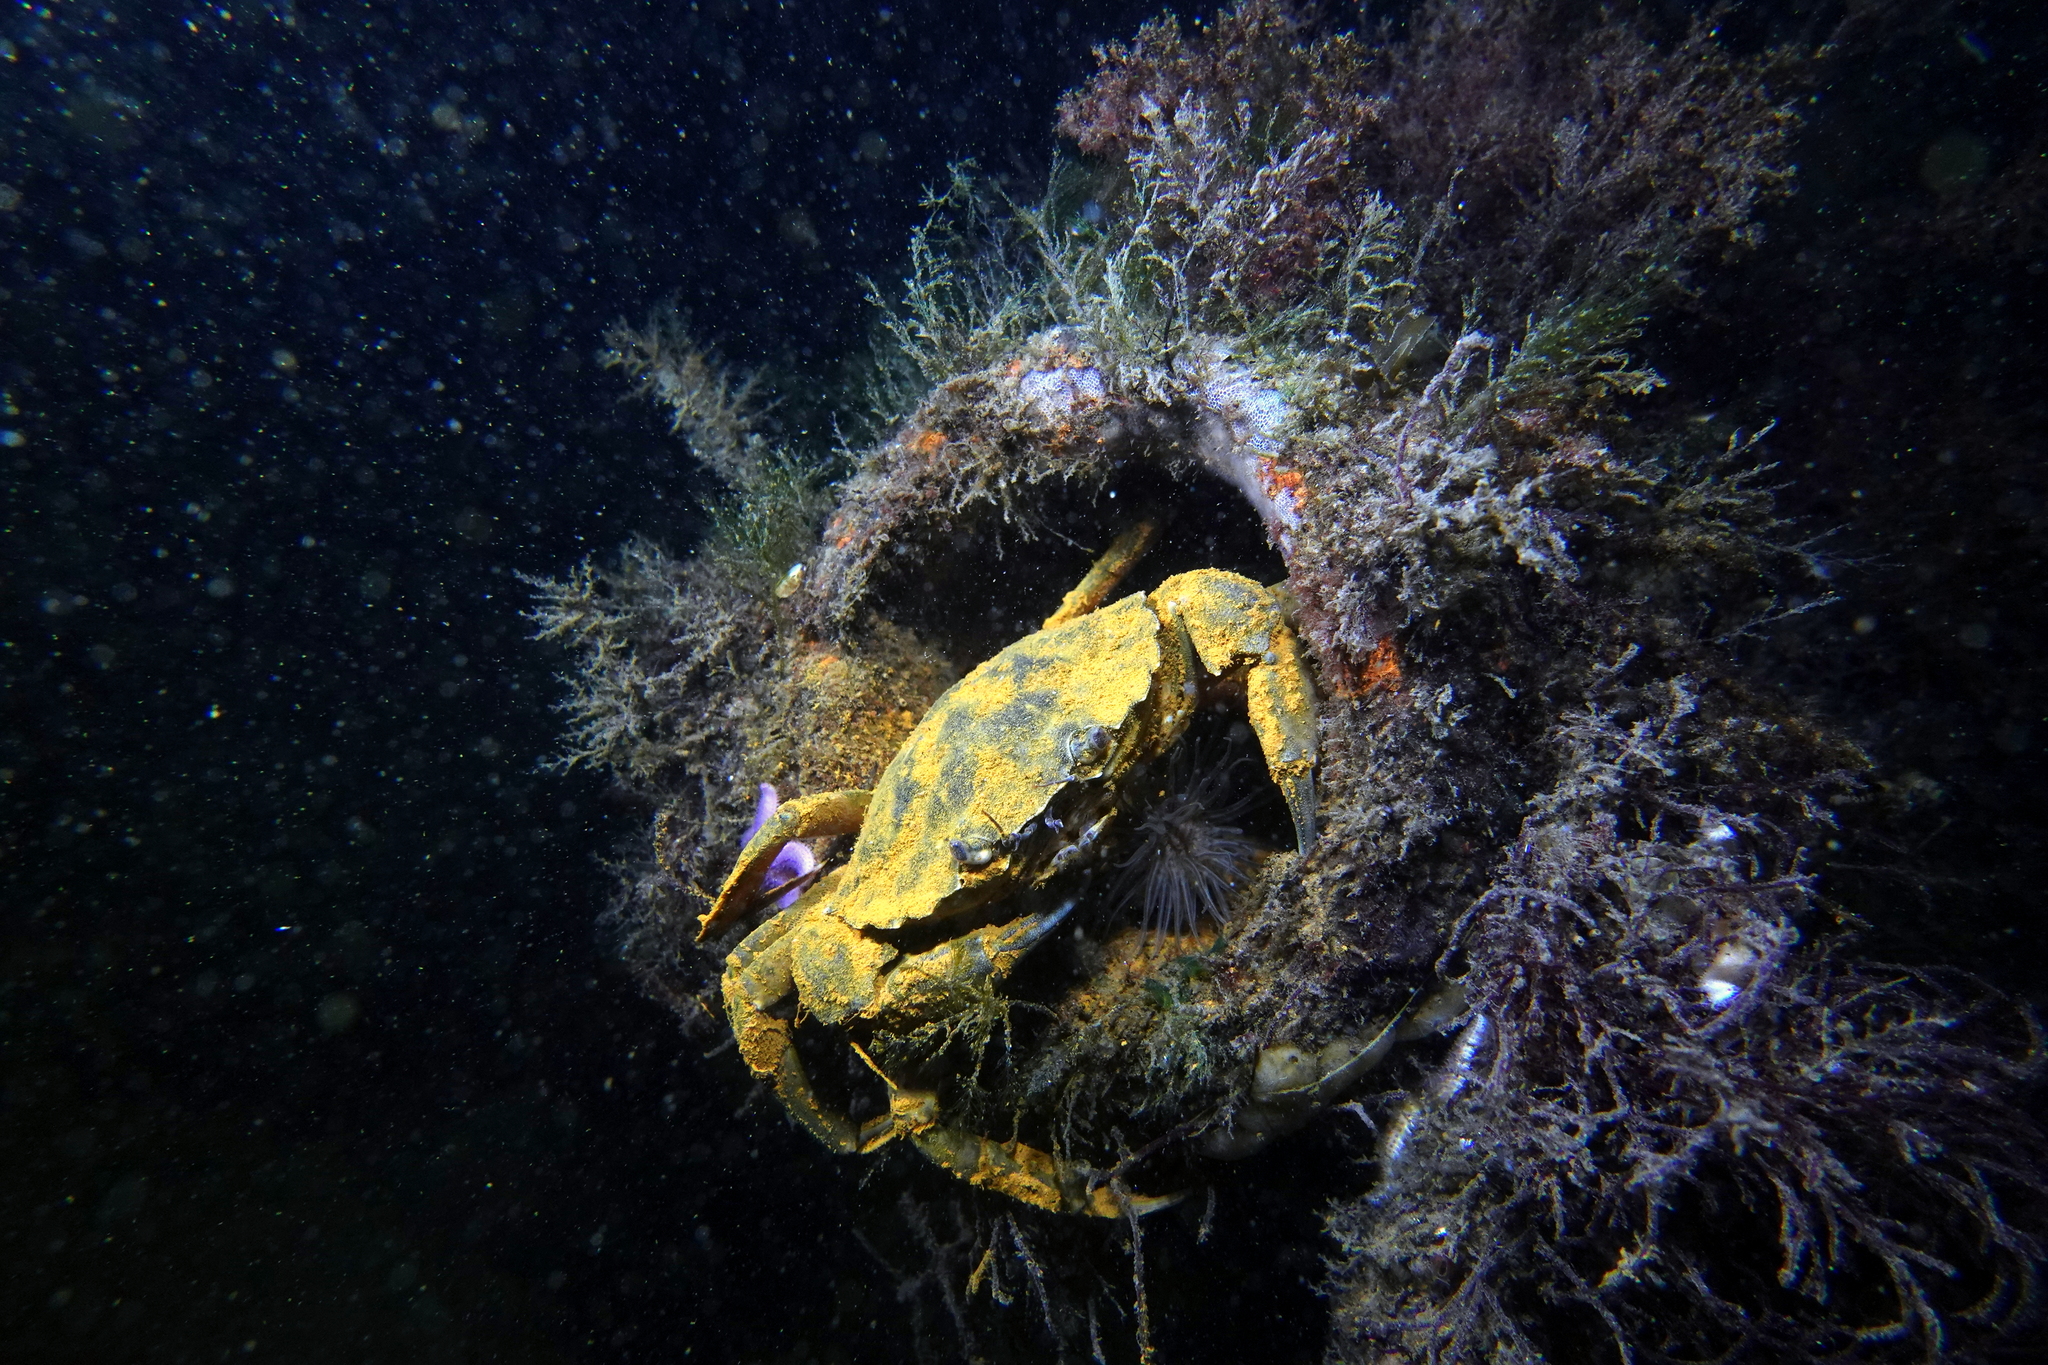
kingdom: Animalia
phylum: Arthropoda
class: Malacostraca
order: Decapoda
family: Carcinidae
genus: Carcinus
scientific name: Carcinus maenas
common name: European green crab
